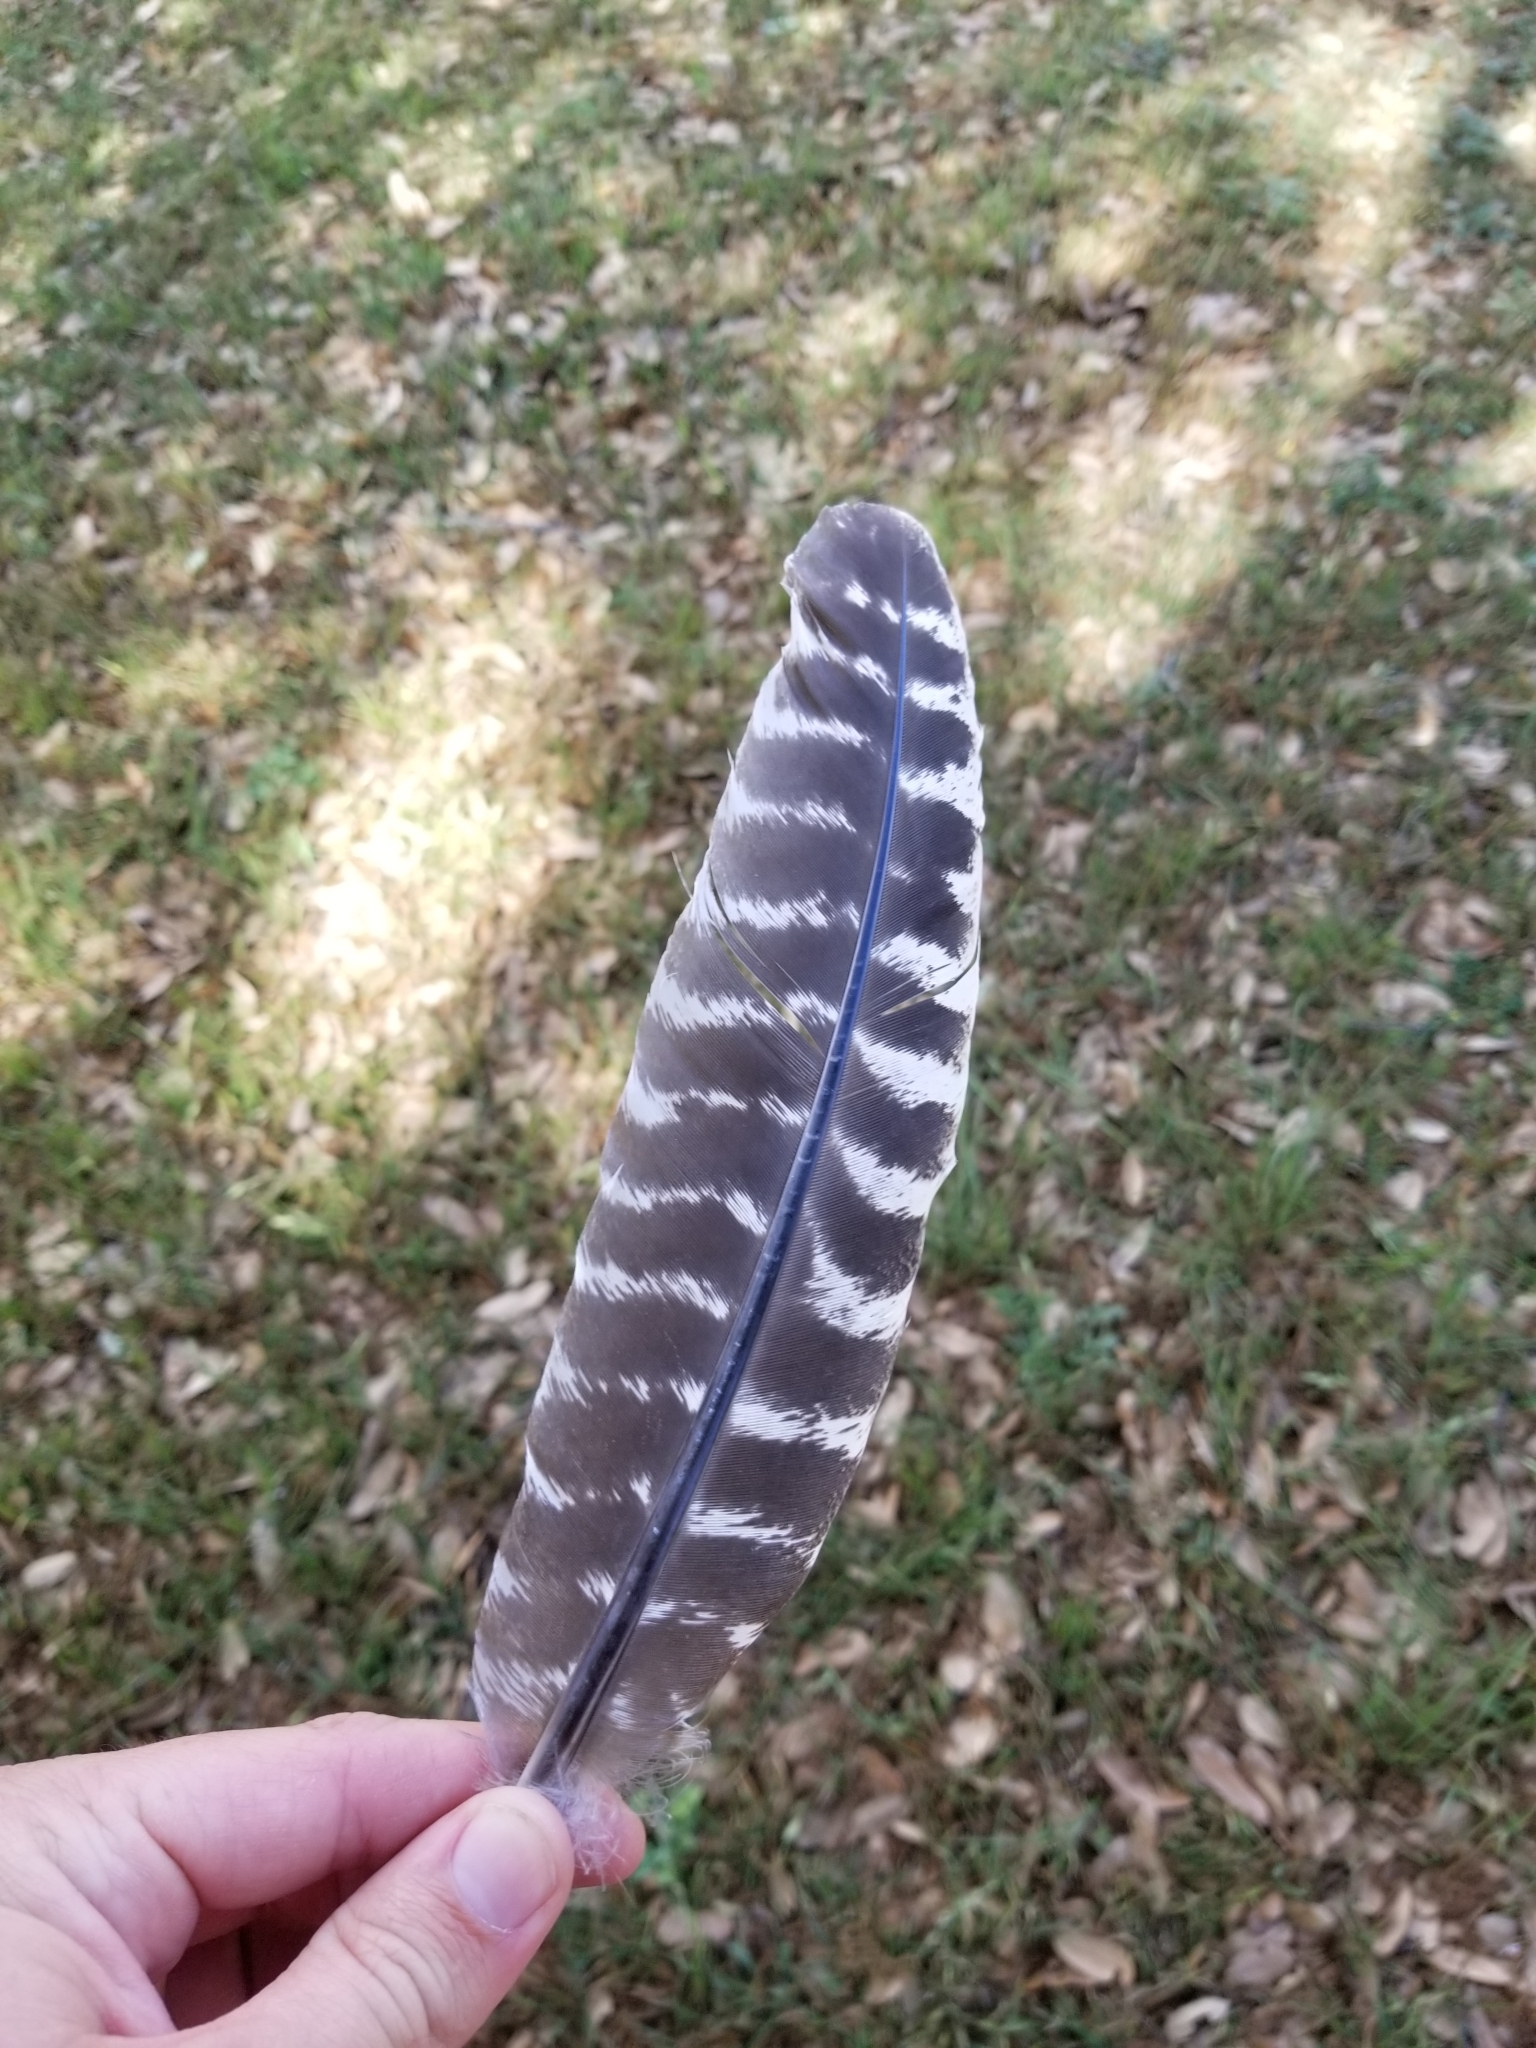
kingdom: Animalia
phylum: Chordata
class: Aves
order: Galliformes
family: Phasianidae
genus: Meleagris
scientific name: Meleagris gallopavo
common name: Wild turkey
